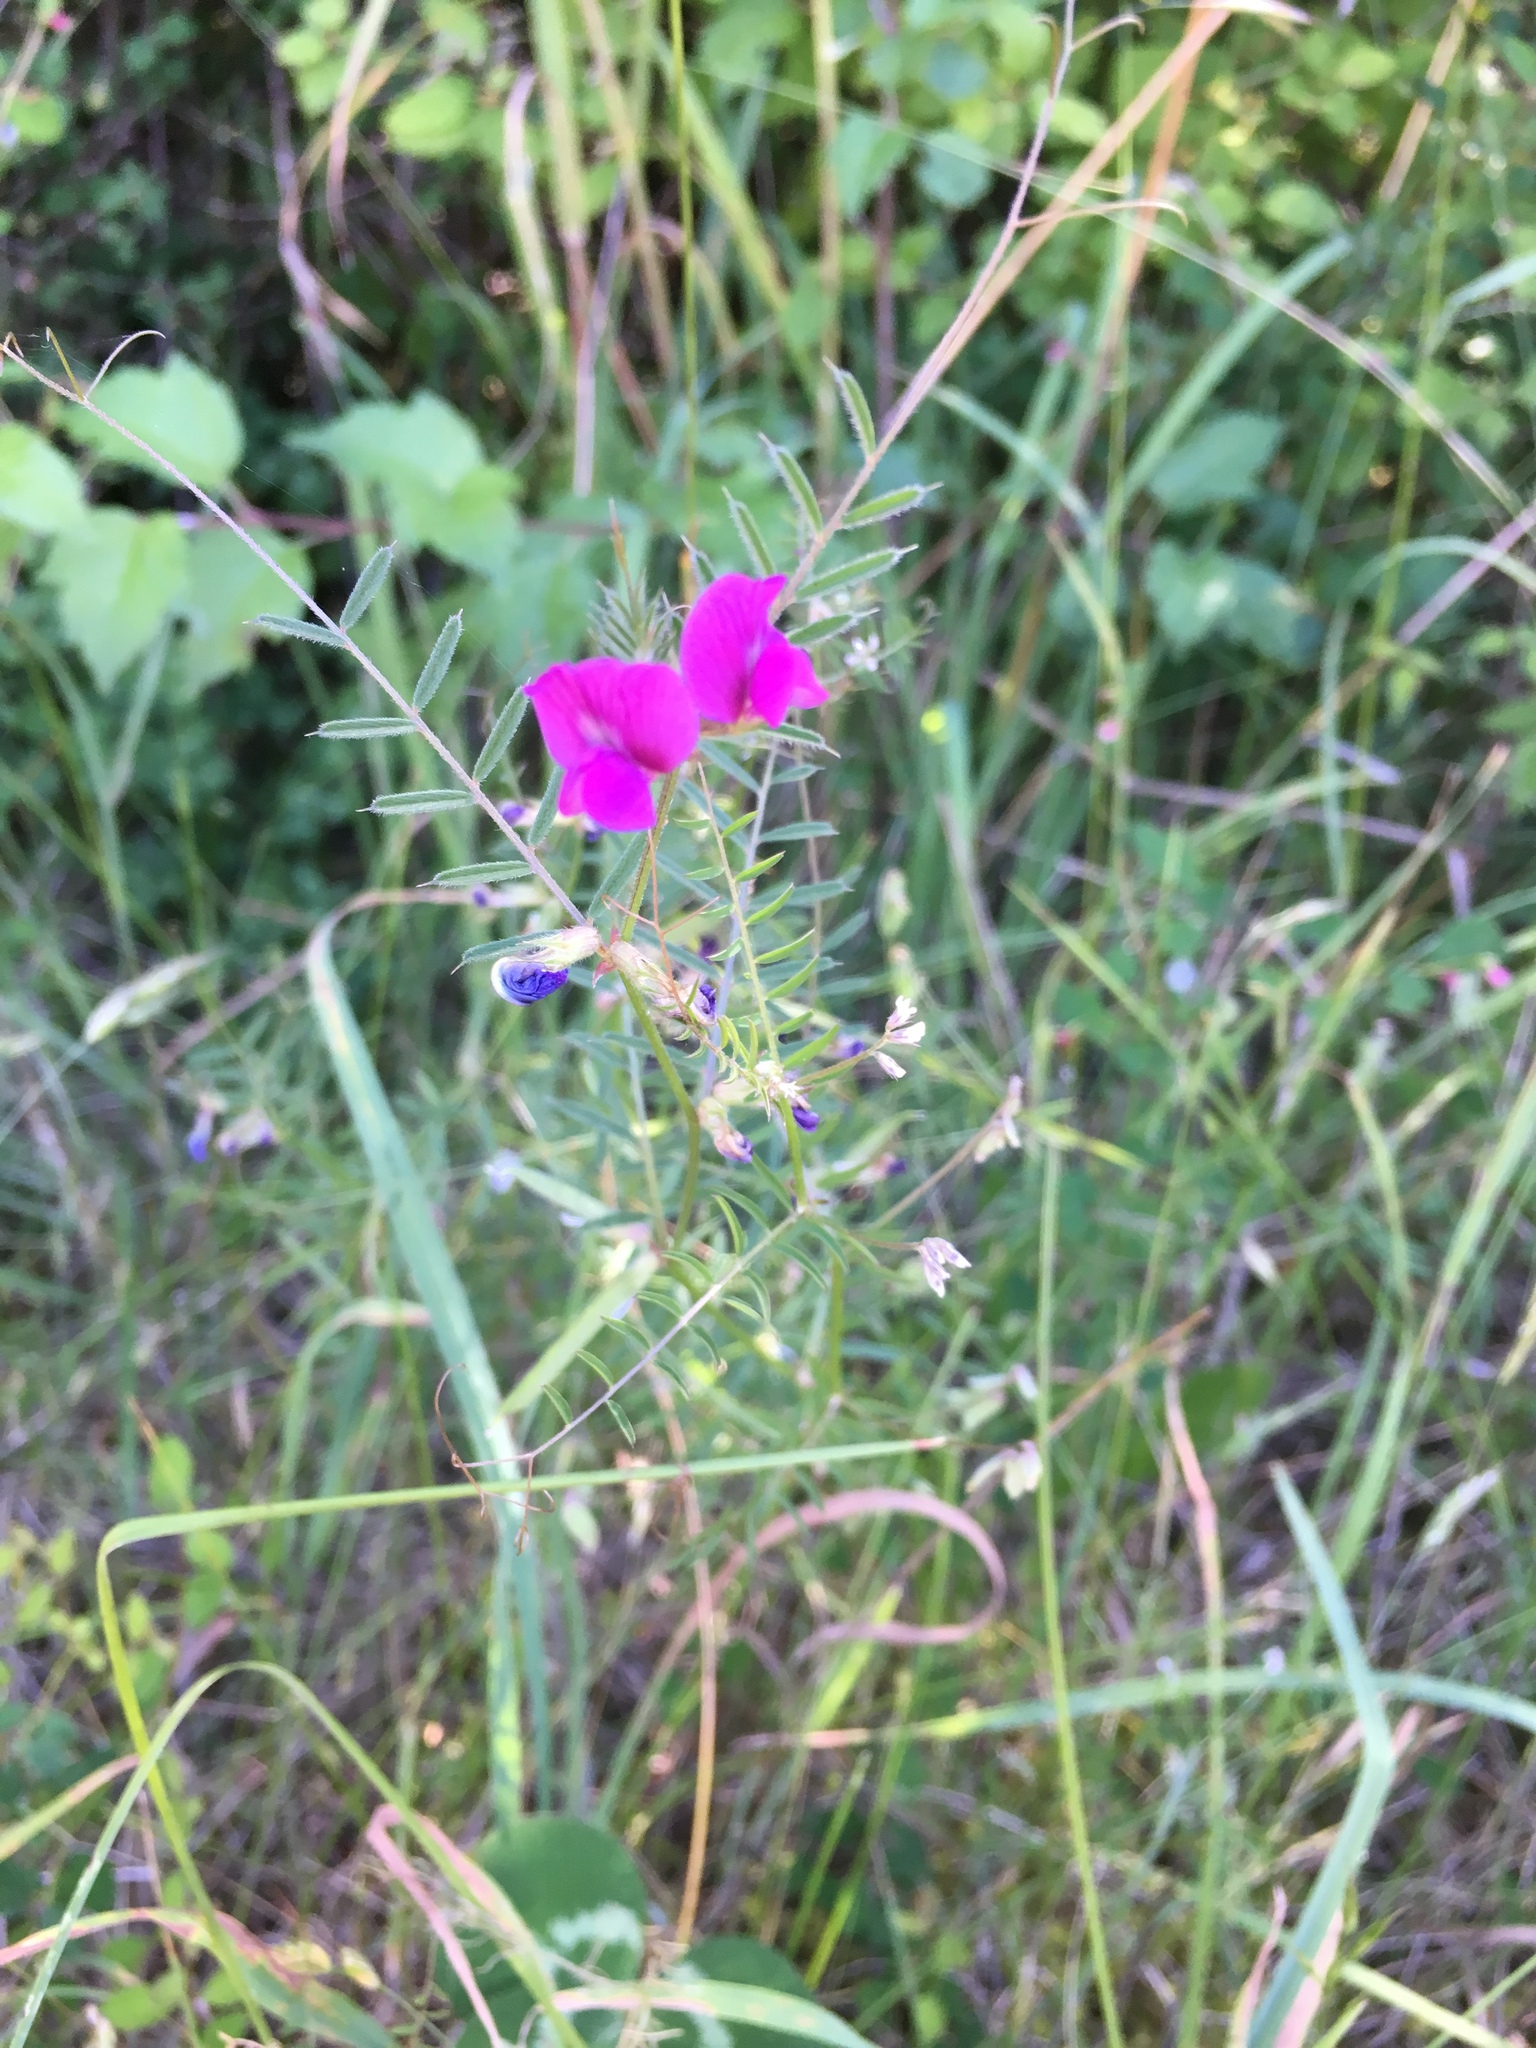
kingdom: Plantae
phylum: Tracheophyta
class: Magnoliopsida
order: Fabales
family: Fabaceae
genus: Vicia
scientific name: Vicia sativa
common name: Garden vetch
